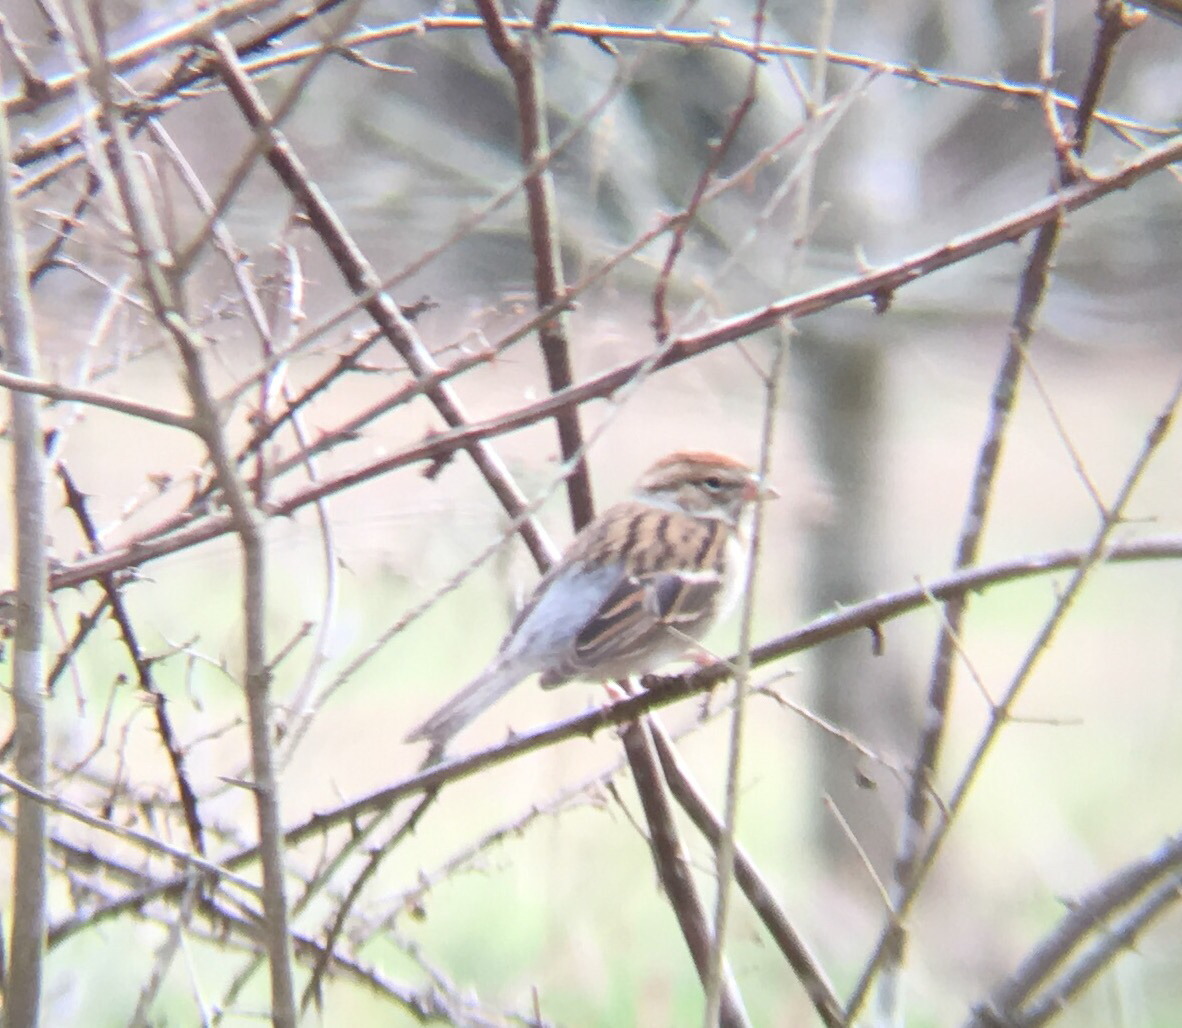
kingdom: Animalia
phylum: Chordata
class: Aves
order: Passeriformes
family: Passerellidae
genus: Spizella
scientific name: Spizella passerina
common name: Chipping sparrow
